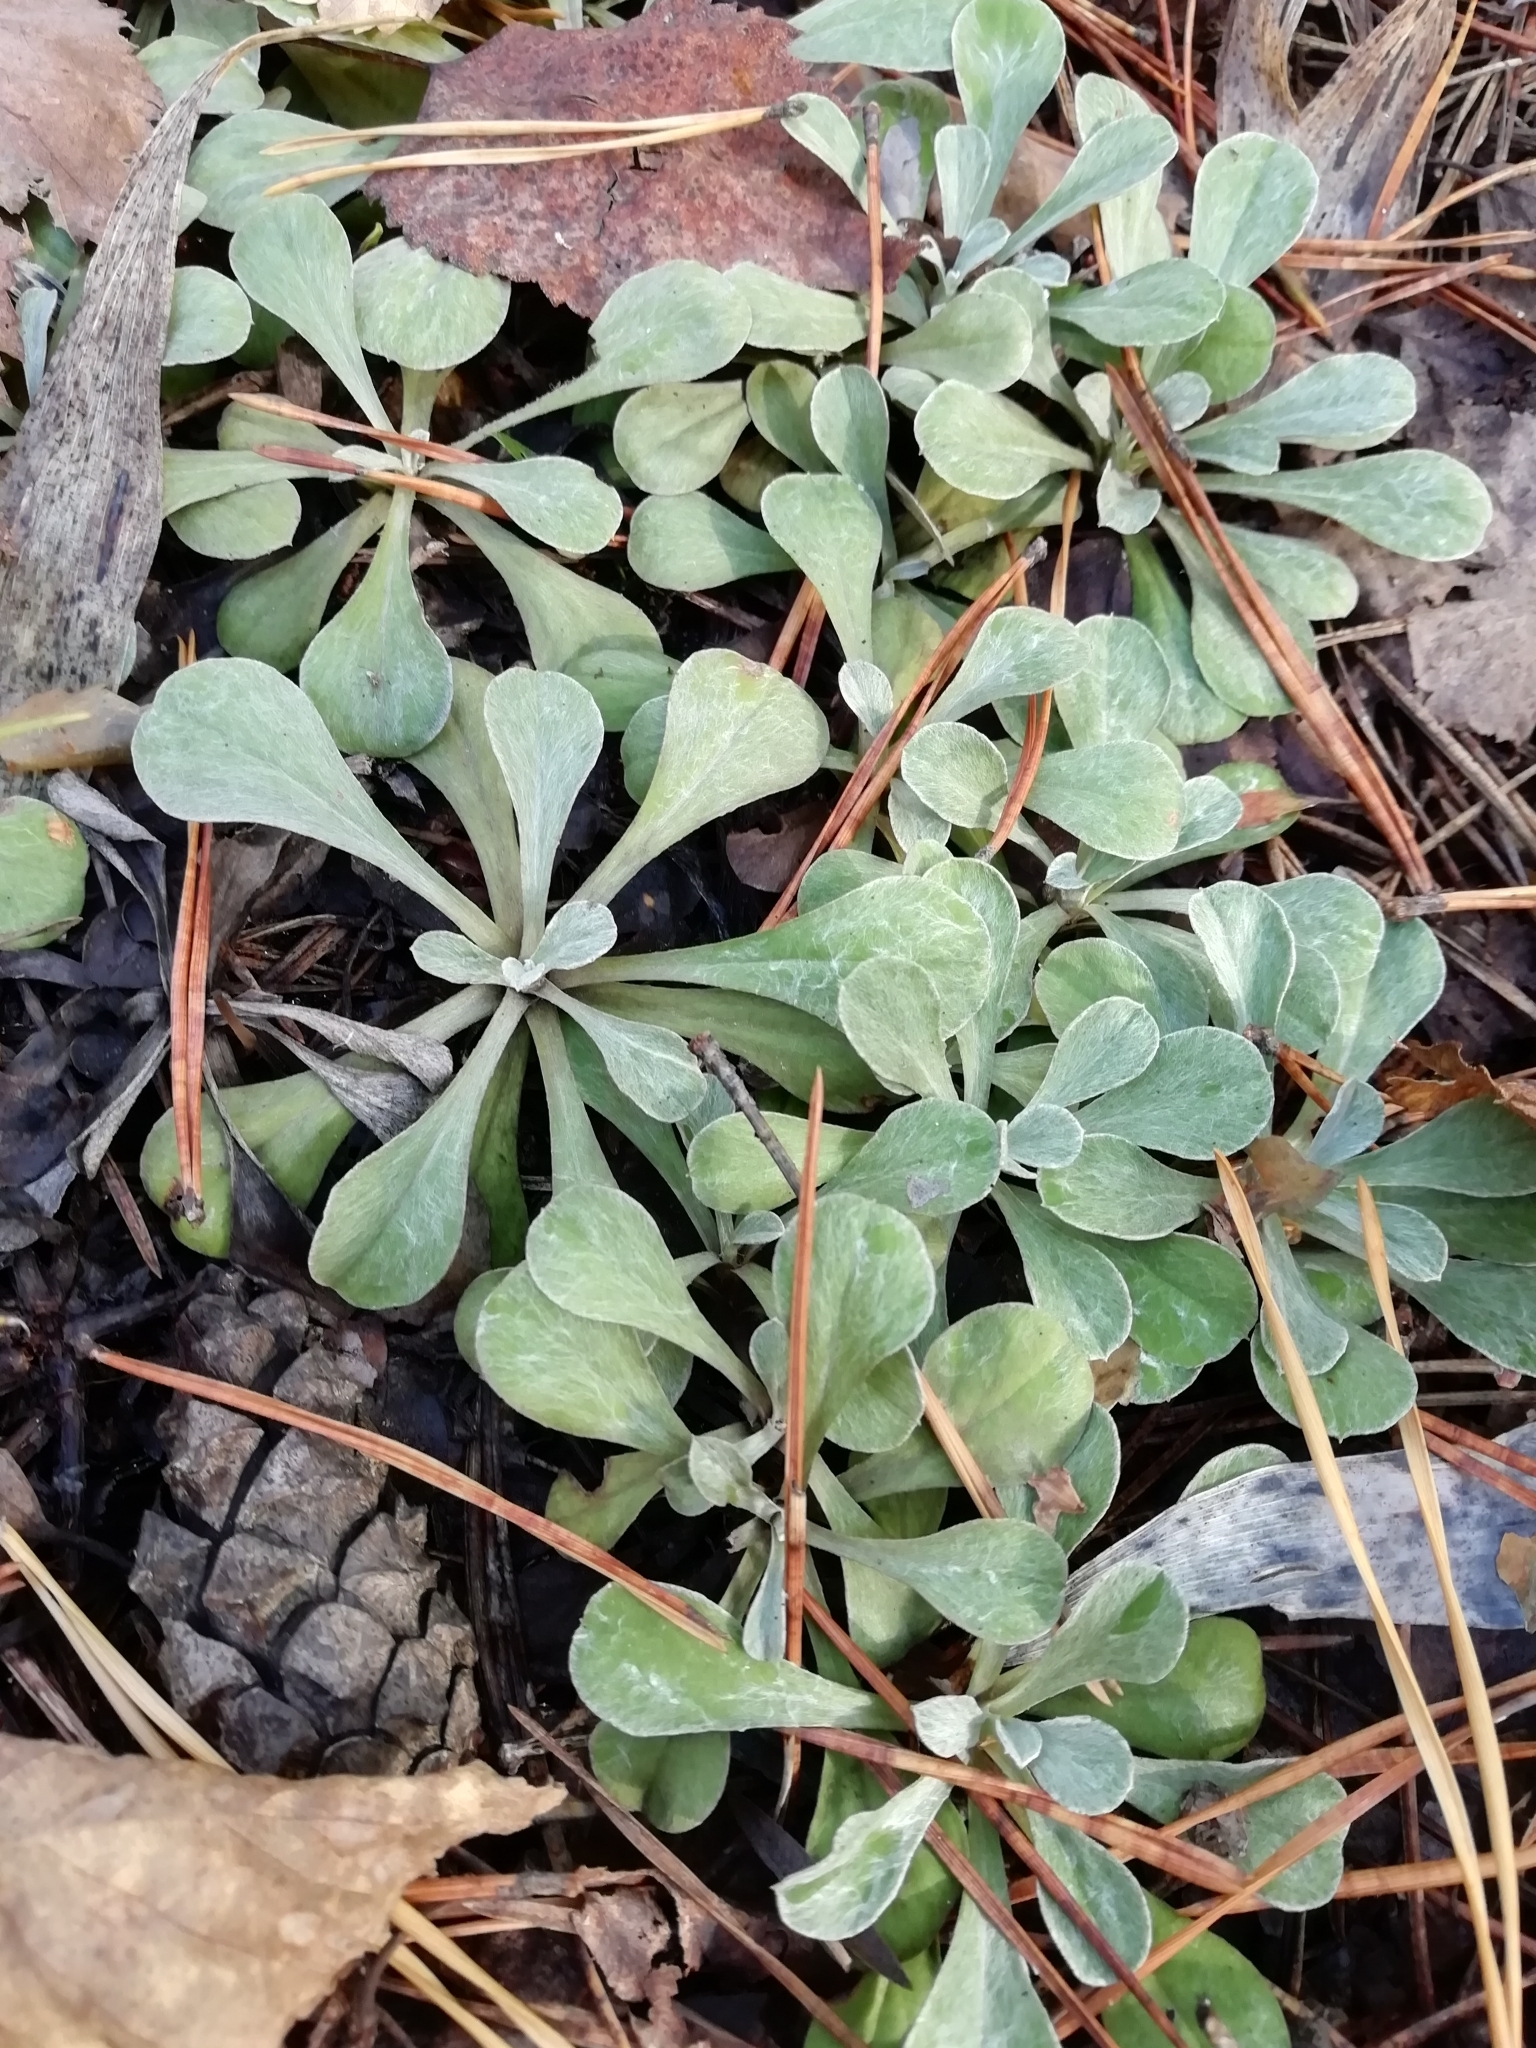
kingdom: Plantae
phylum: Tracheophyta
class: Magnoliopsida
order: Asterales
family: Asteraceae
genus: Antennaria
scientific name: Antennaria dioica
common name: Mountain everlasting
